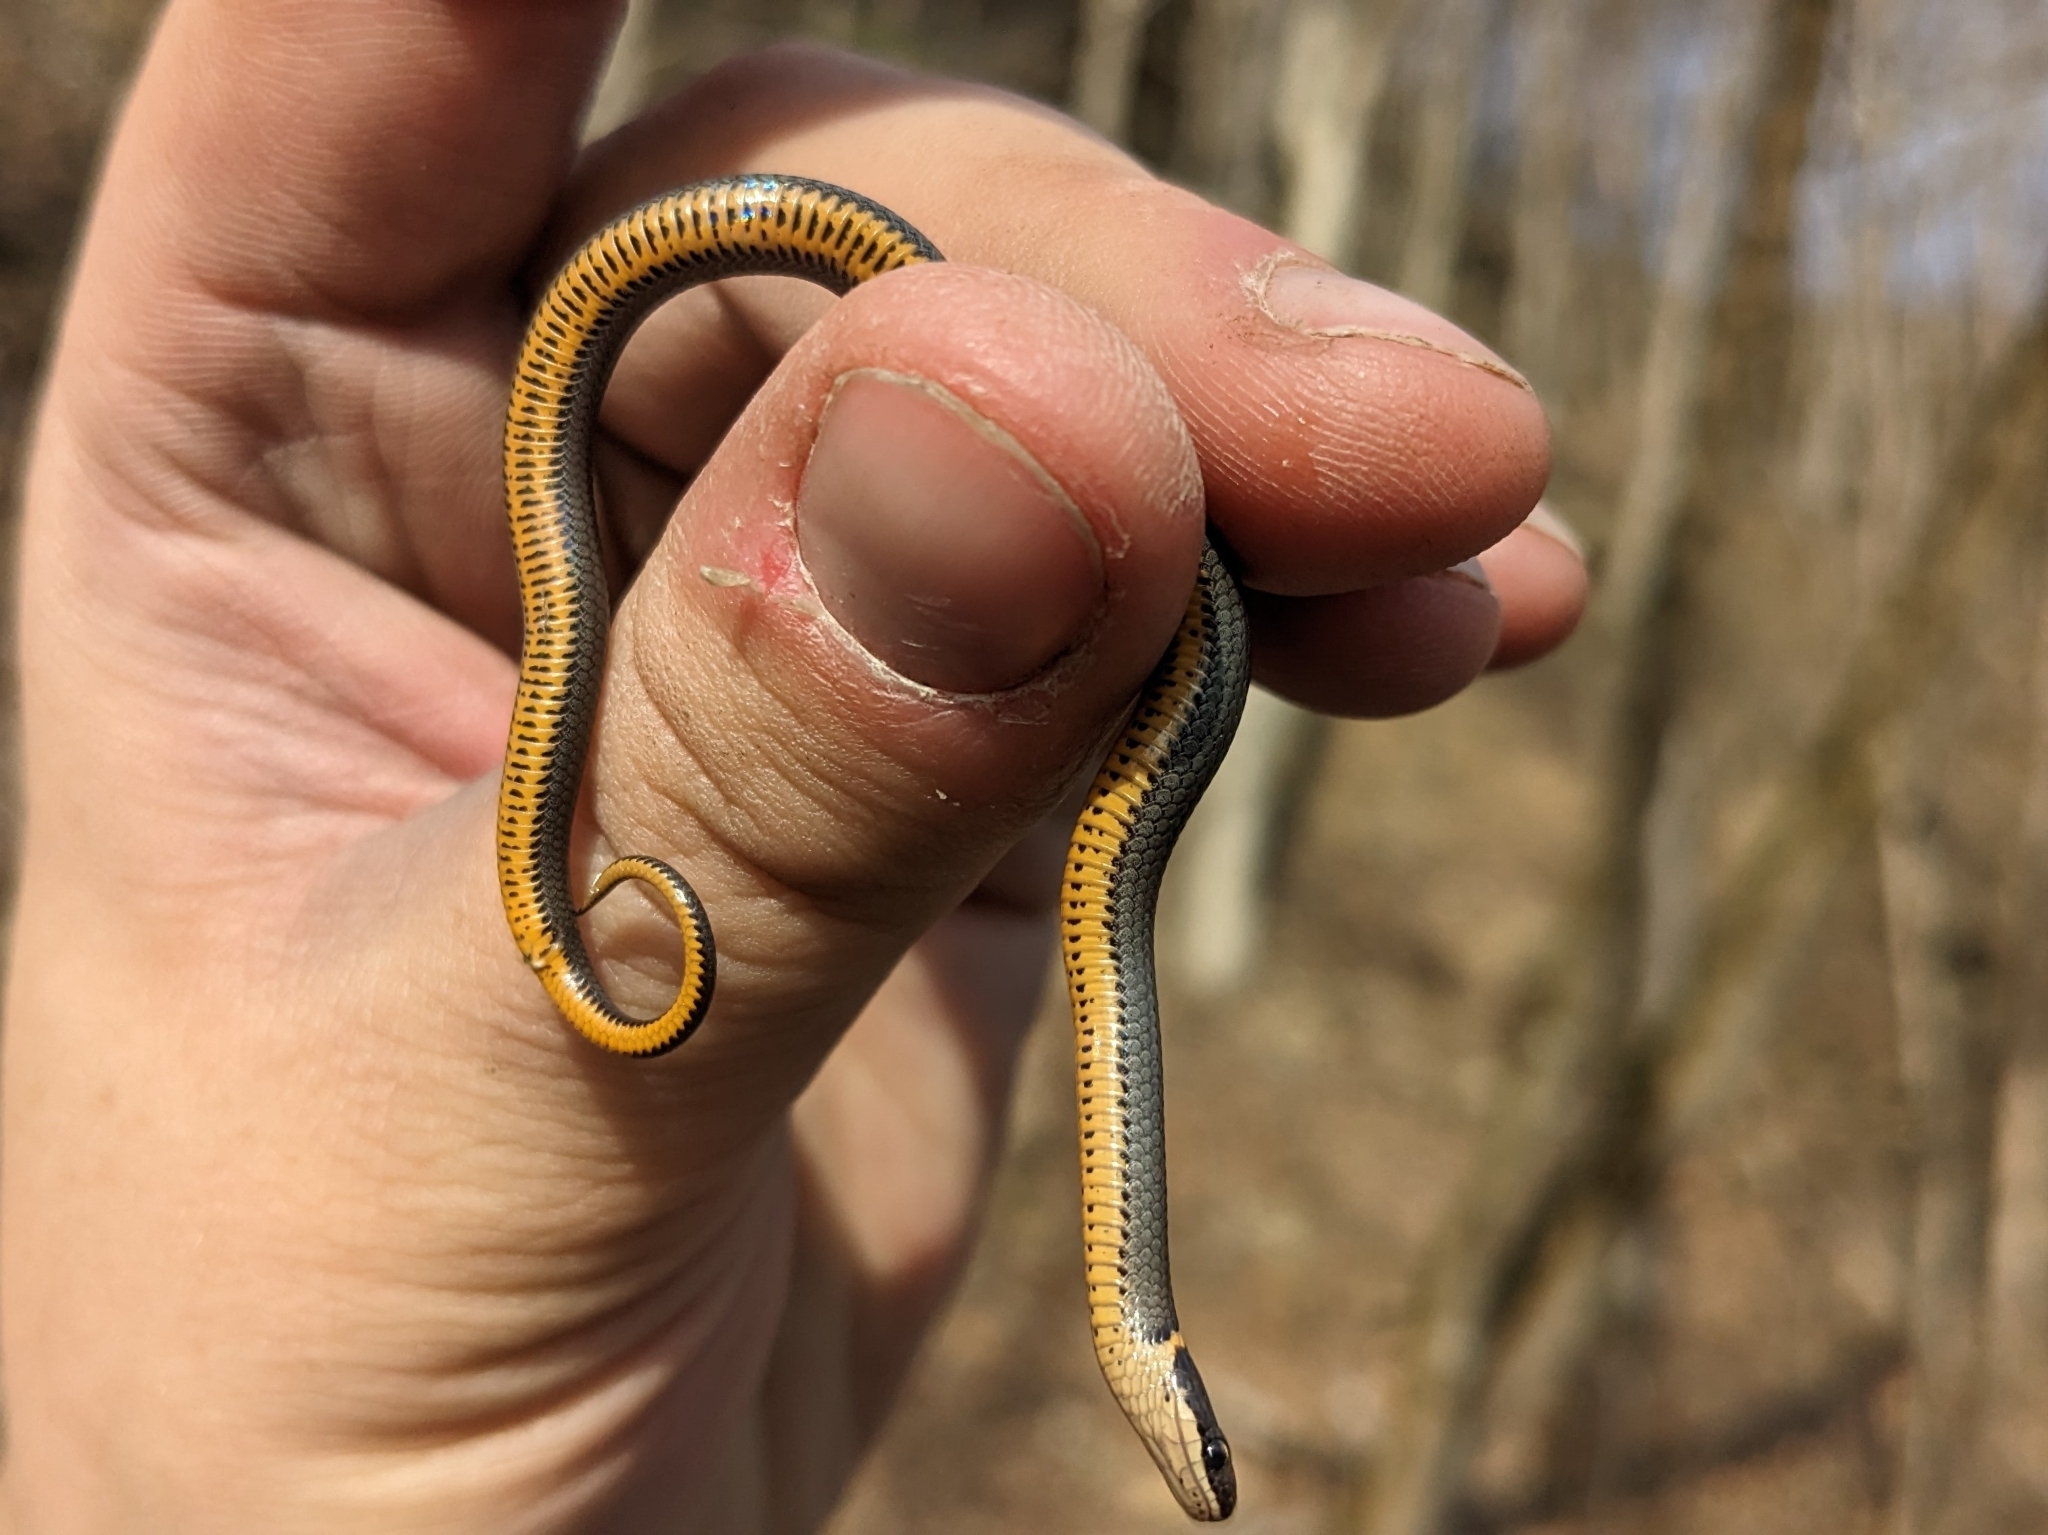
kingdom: Animalia
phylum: Chordata
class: Squamata
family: Colubridae
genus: Diadophis
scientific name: Diadophis punctatus
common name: Ringneck snake
